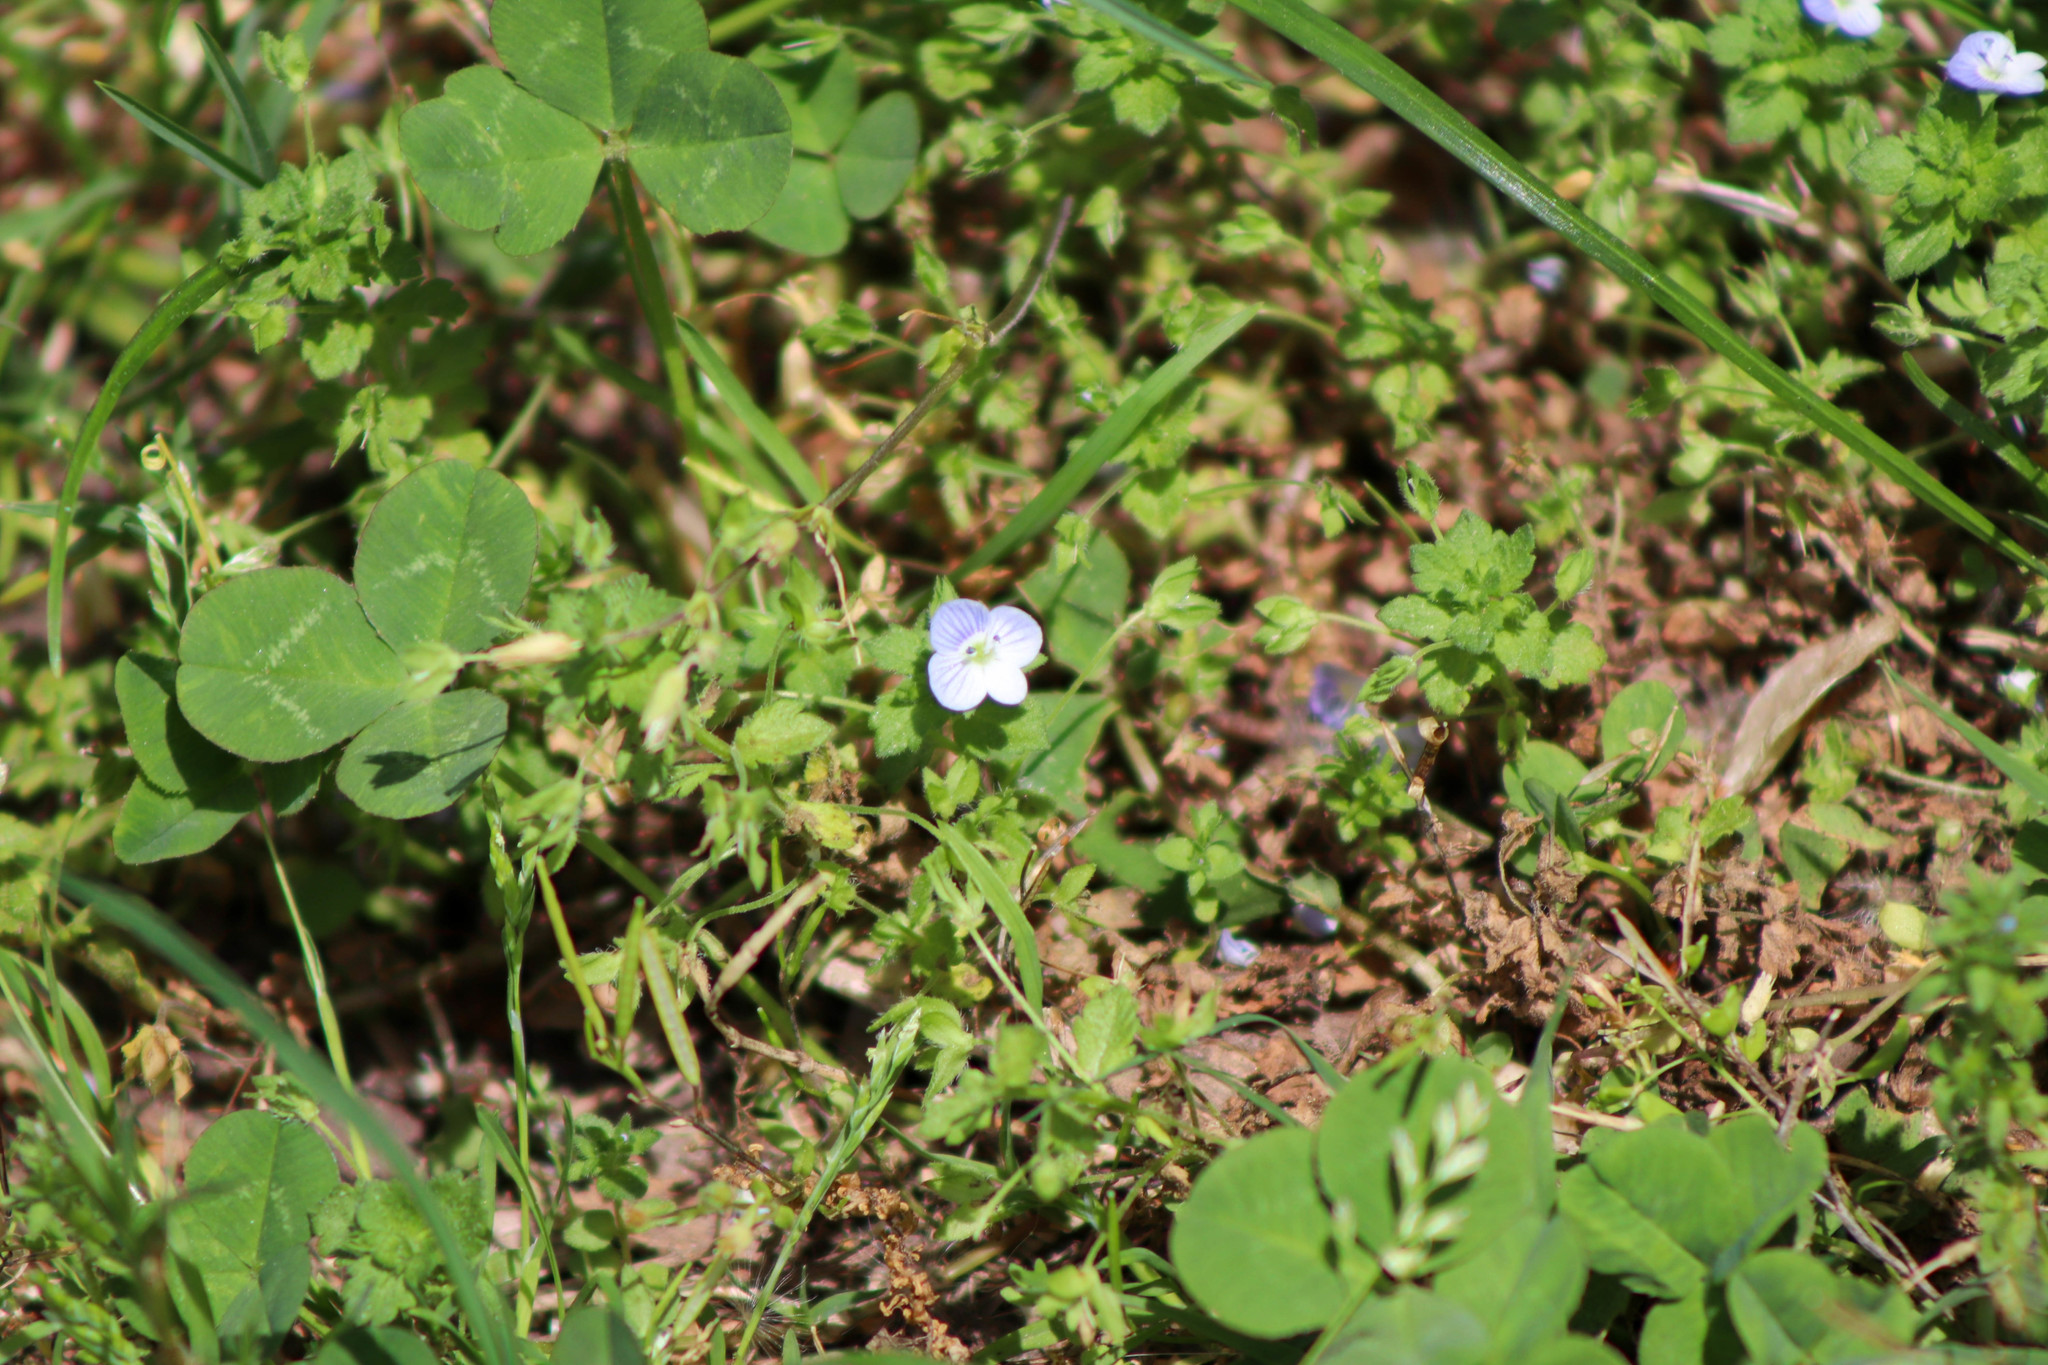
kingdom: Plantae
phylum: Tracheophyta
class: Magnoliopsida
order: Lamiales
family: Plantaginaceae
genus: Veronica
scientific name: Veronica persica
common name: Common field-speedwell
